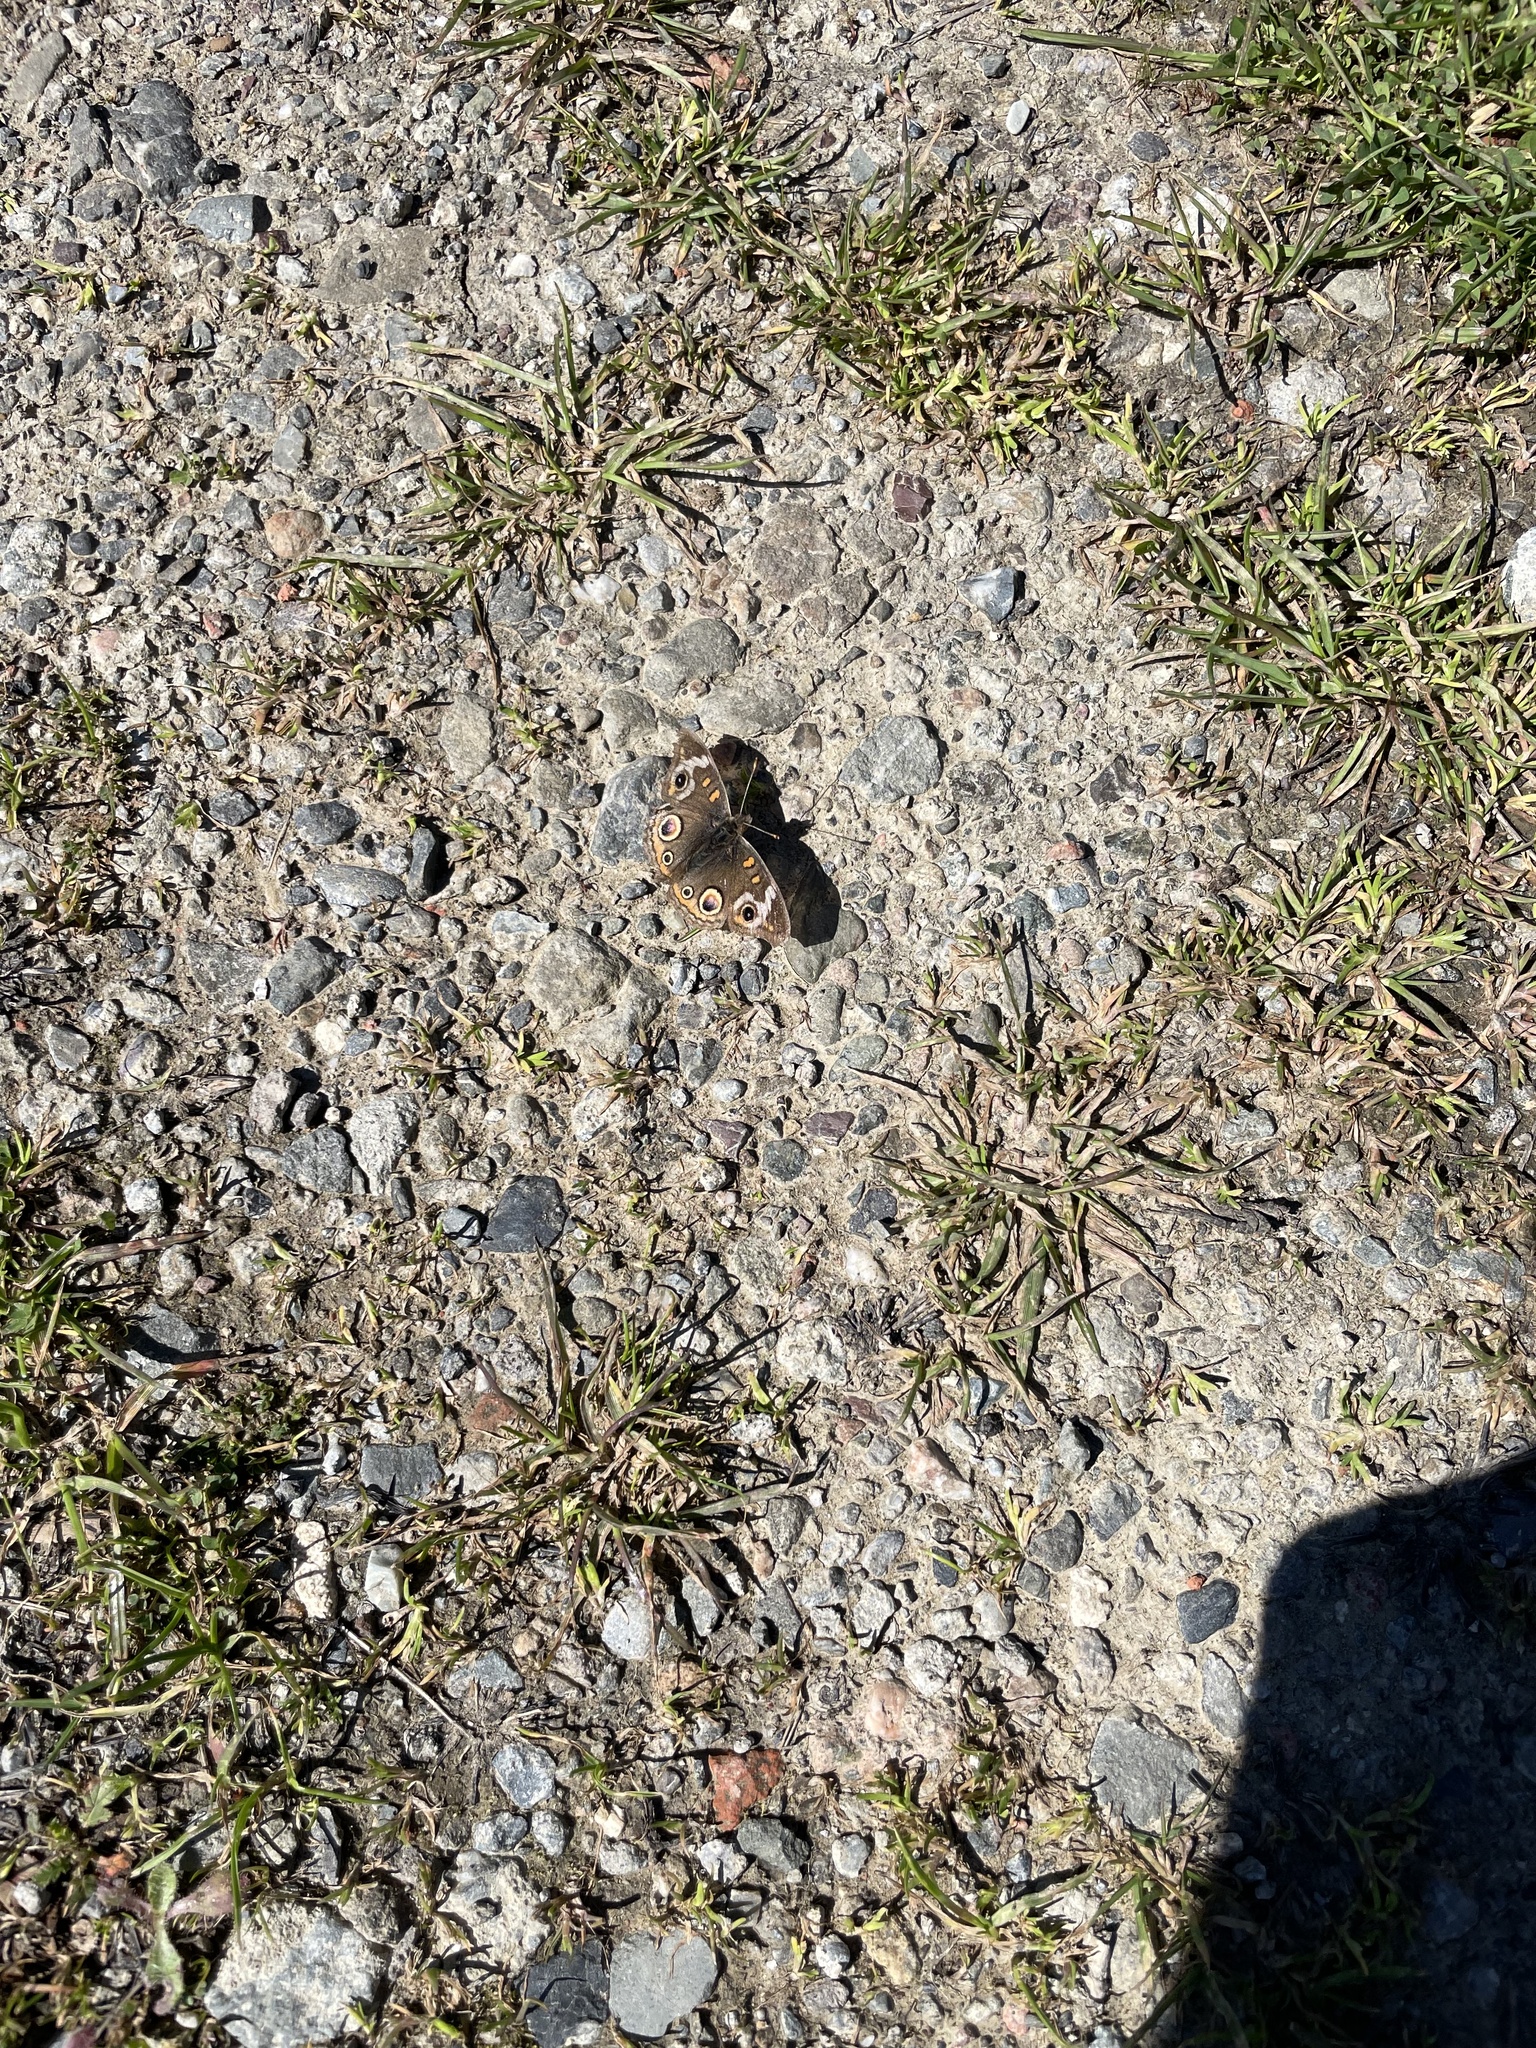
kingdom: Animalia
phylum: Arthropoda
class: Insecta
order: Lepidoptera
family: Nymphalidae
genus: Junonia
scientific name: Junonia grisea
